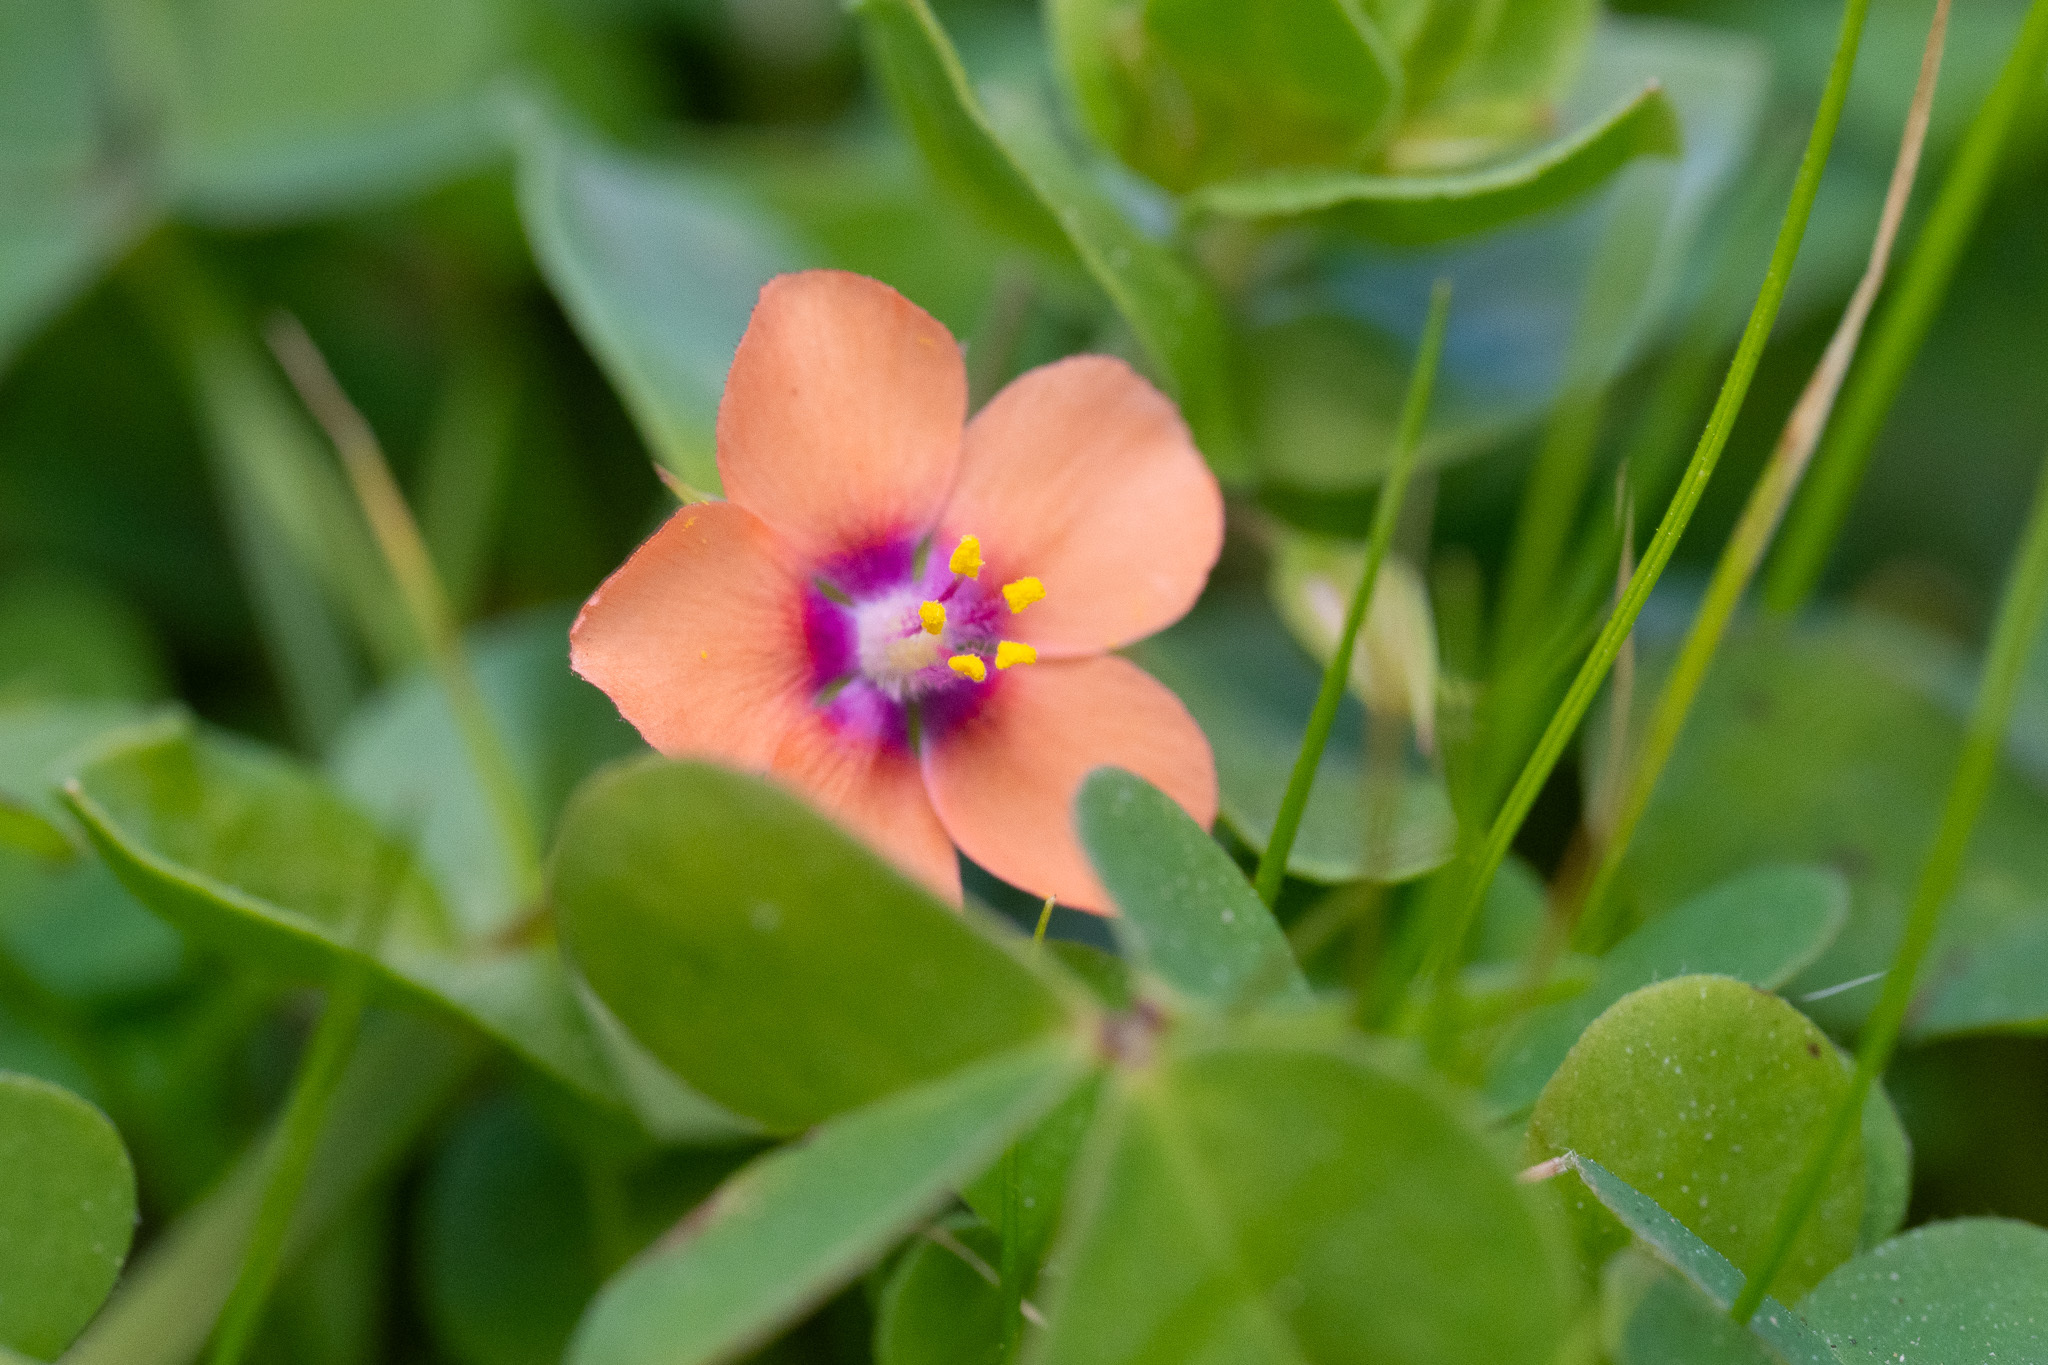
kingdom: Plantae
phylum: Tracheophyta
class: Magnoliopsida
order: Ericales
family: Primulaceae
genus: Lysimachia
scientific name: Lysimachia arvensis
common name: Scarlet pimpernel
